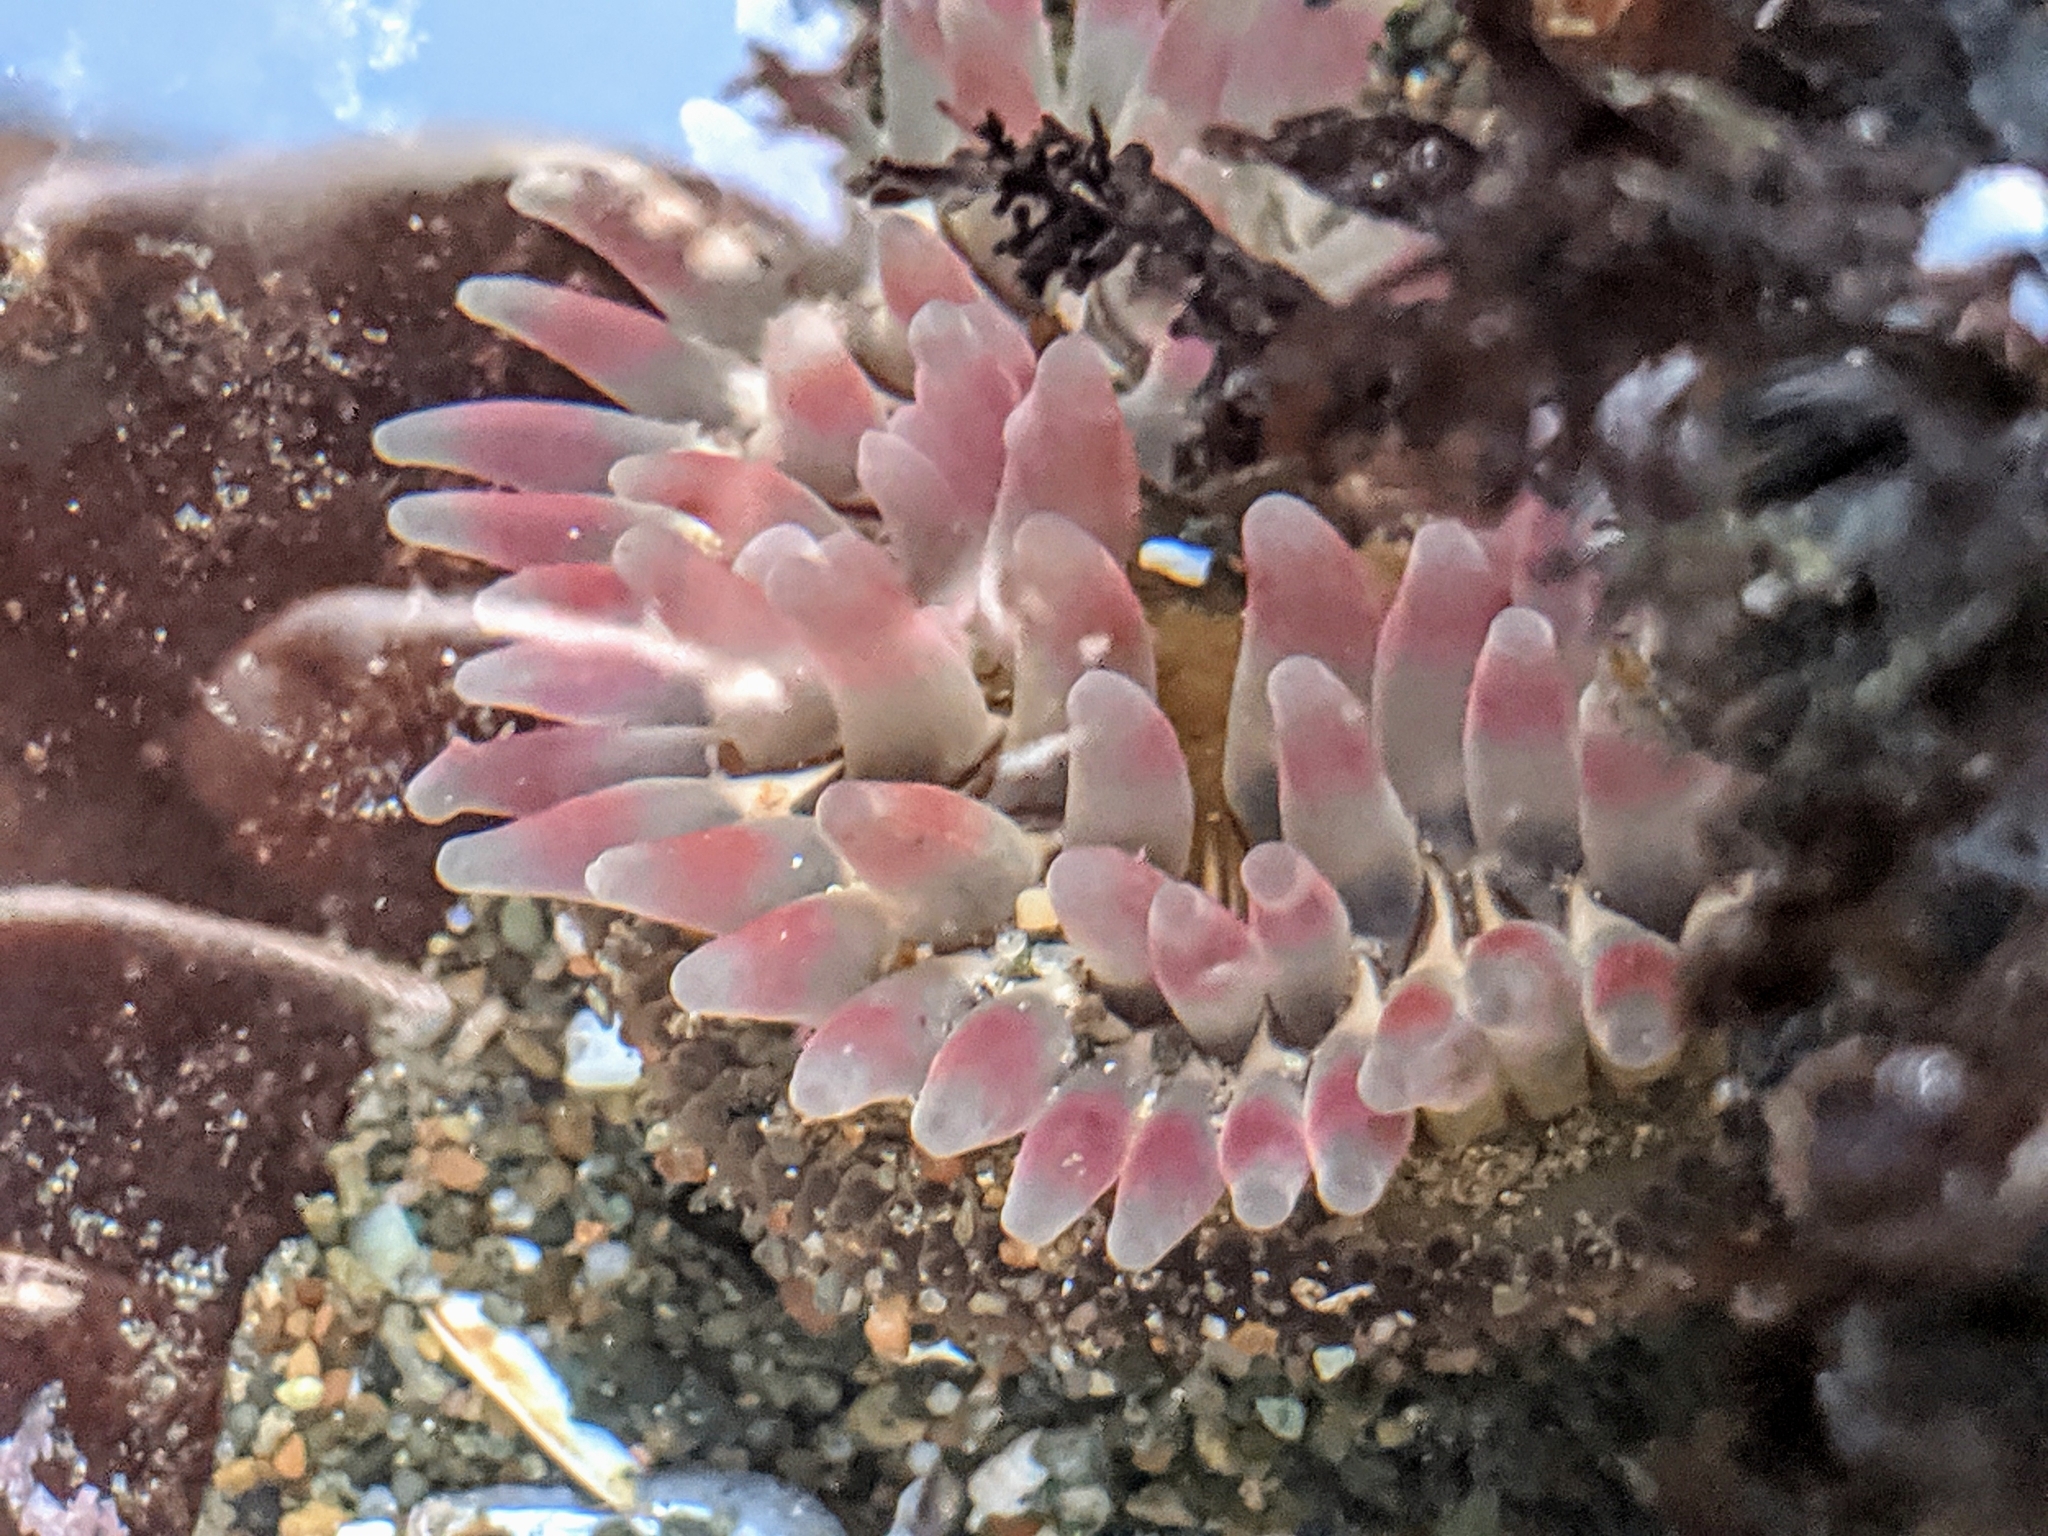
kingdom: Animalia
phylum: Cnidaria
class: Anthozoa
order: Actiniaria
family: Actiniidae
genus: Urticina
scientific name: Urticina clandestina
